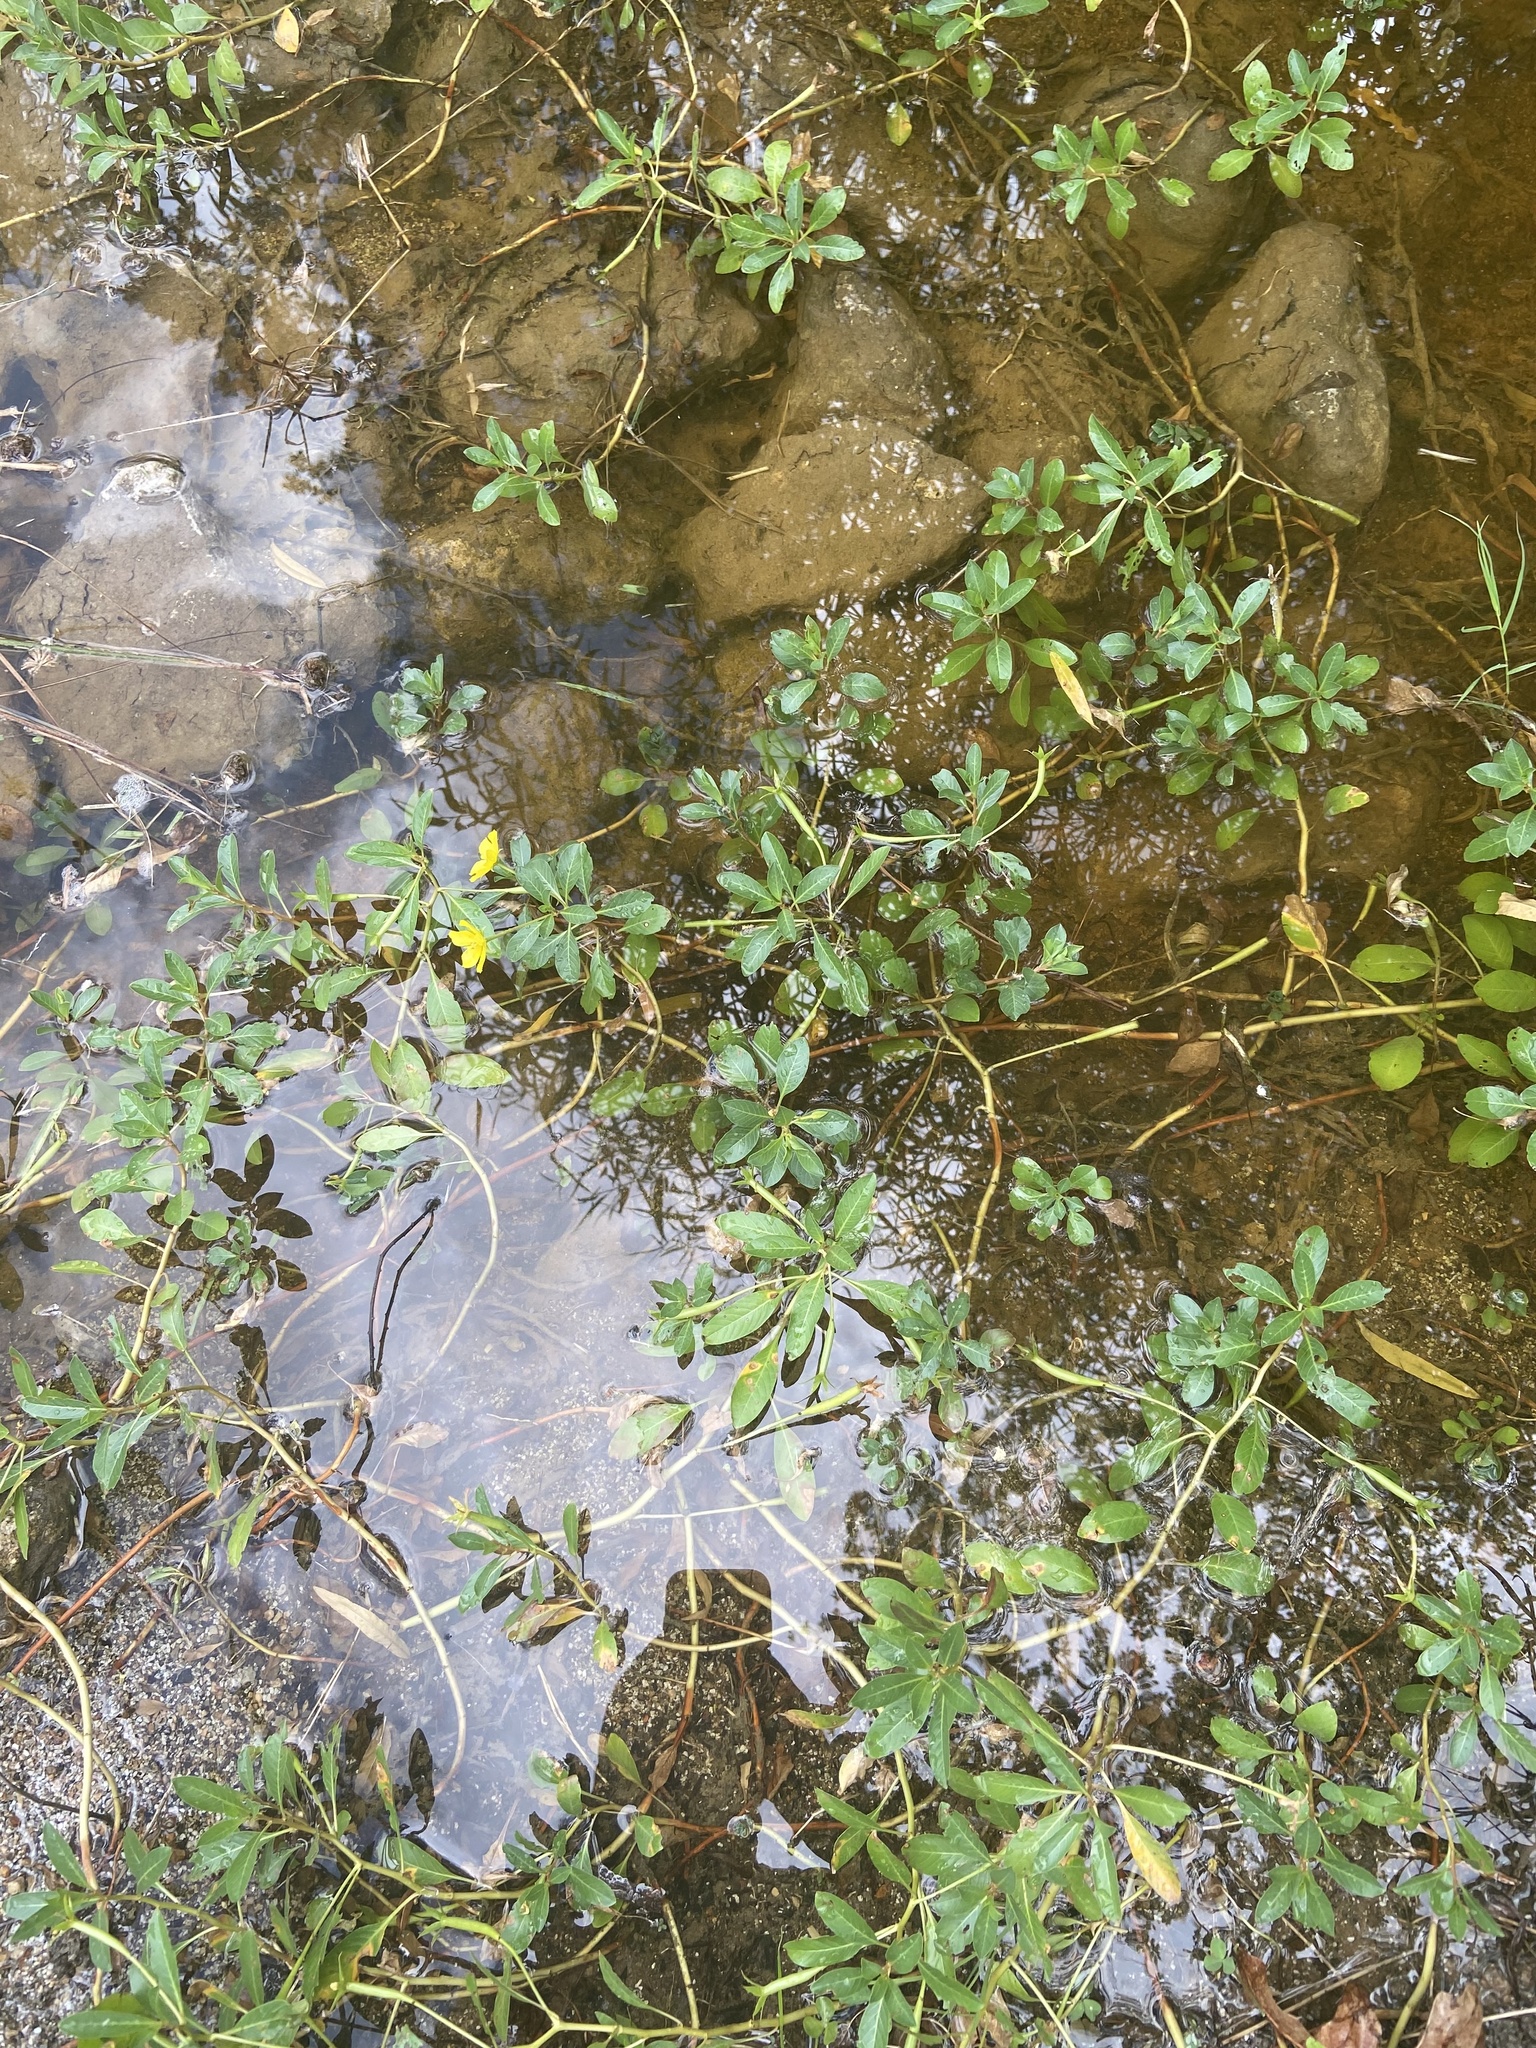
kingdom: Plantae
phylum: Tracheophyta
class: Magnoliopsida
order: Myrtales
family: Onagraceae
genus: Ludwigia
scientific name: Ludwigia peploides
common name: Floating primrose-willow
